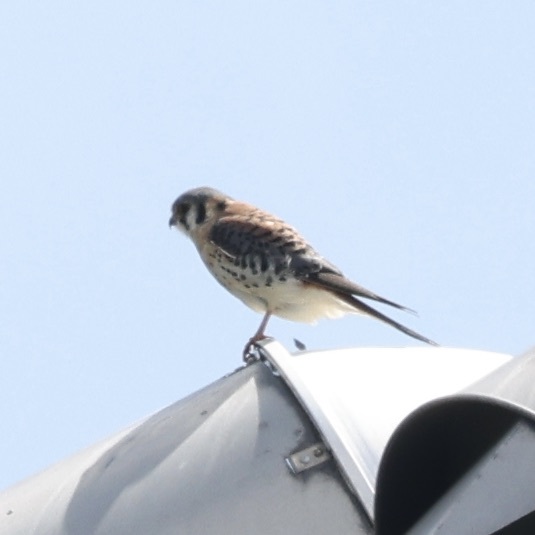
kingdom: Animalia
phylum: Chordata
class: Aves
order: Falconiformes
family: Falconidae
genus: Falco
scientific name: Falco sparverius
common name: American kestrel
